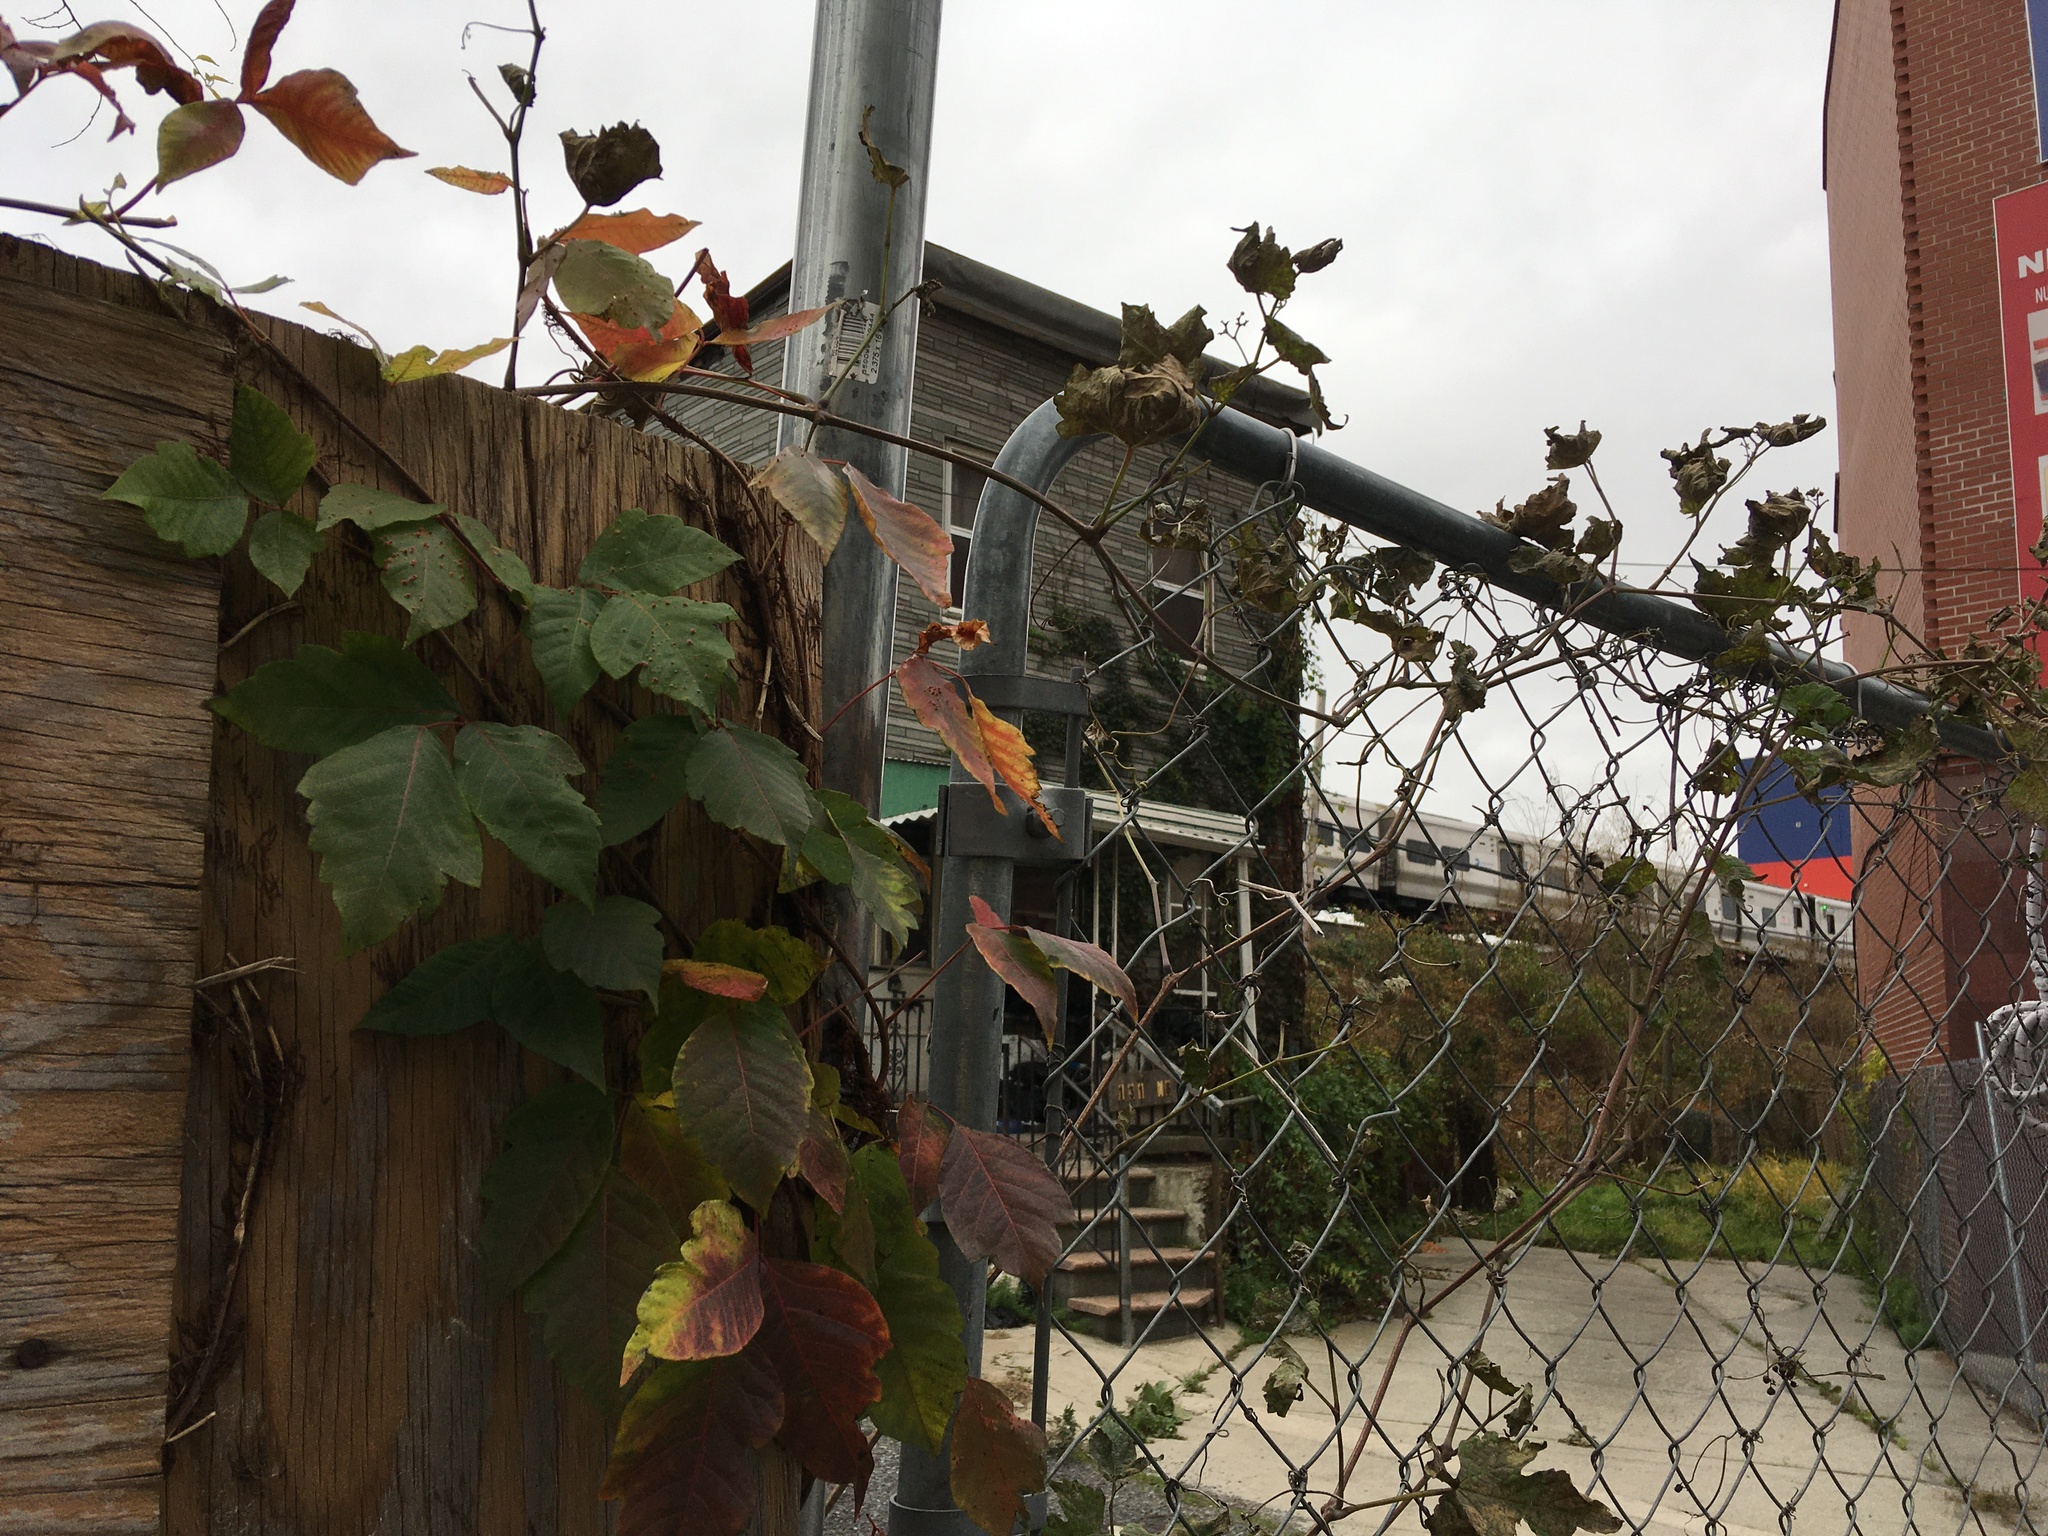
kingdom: Plantae
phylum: Tracheophyta
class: Magnoliopsida
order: Sapindales
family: Anacardiaceae
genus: Toxicodendron
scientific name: Toxicodendron radicans
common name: Poison ivy
